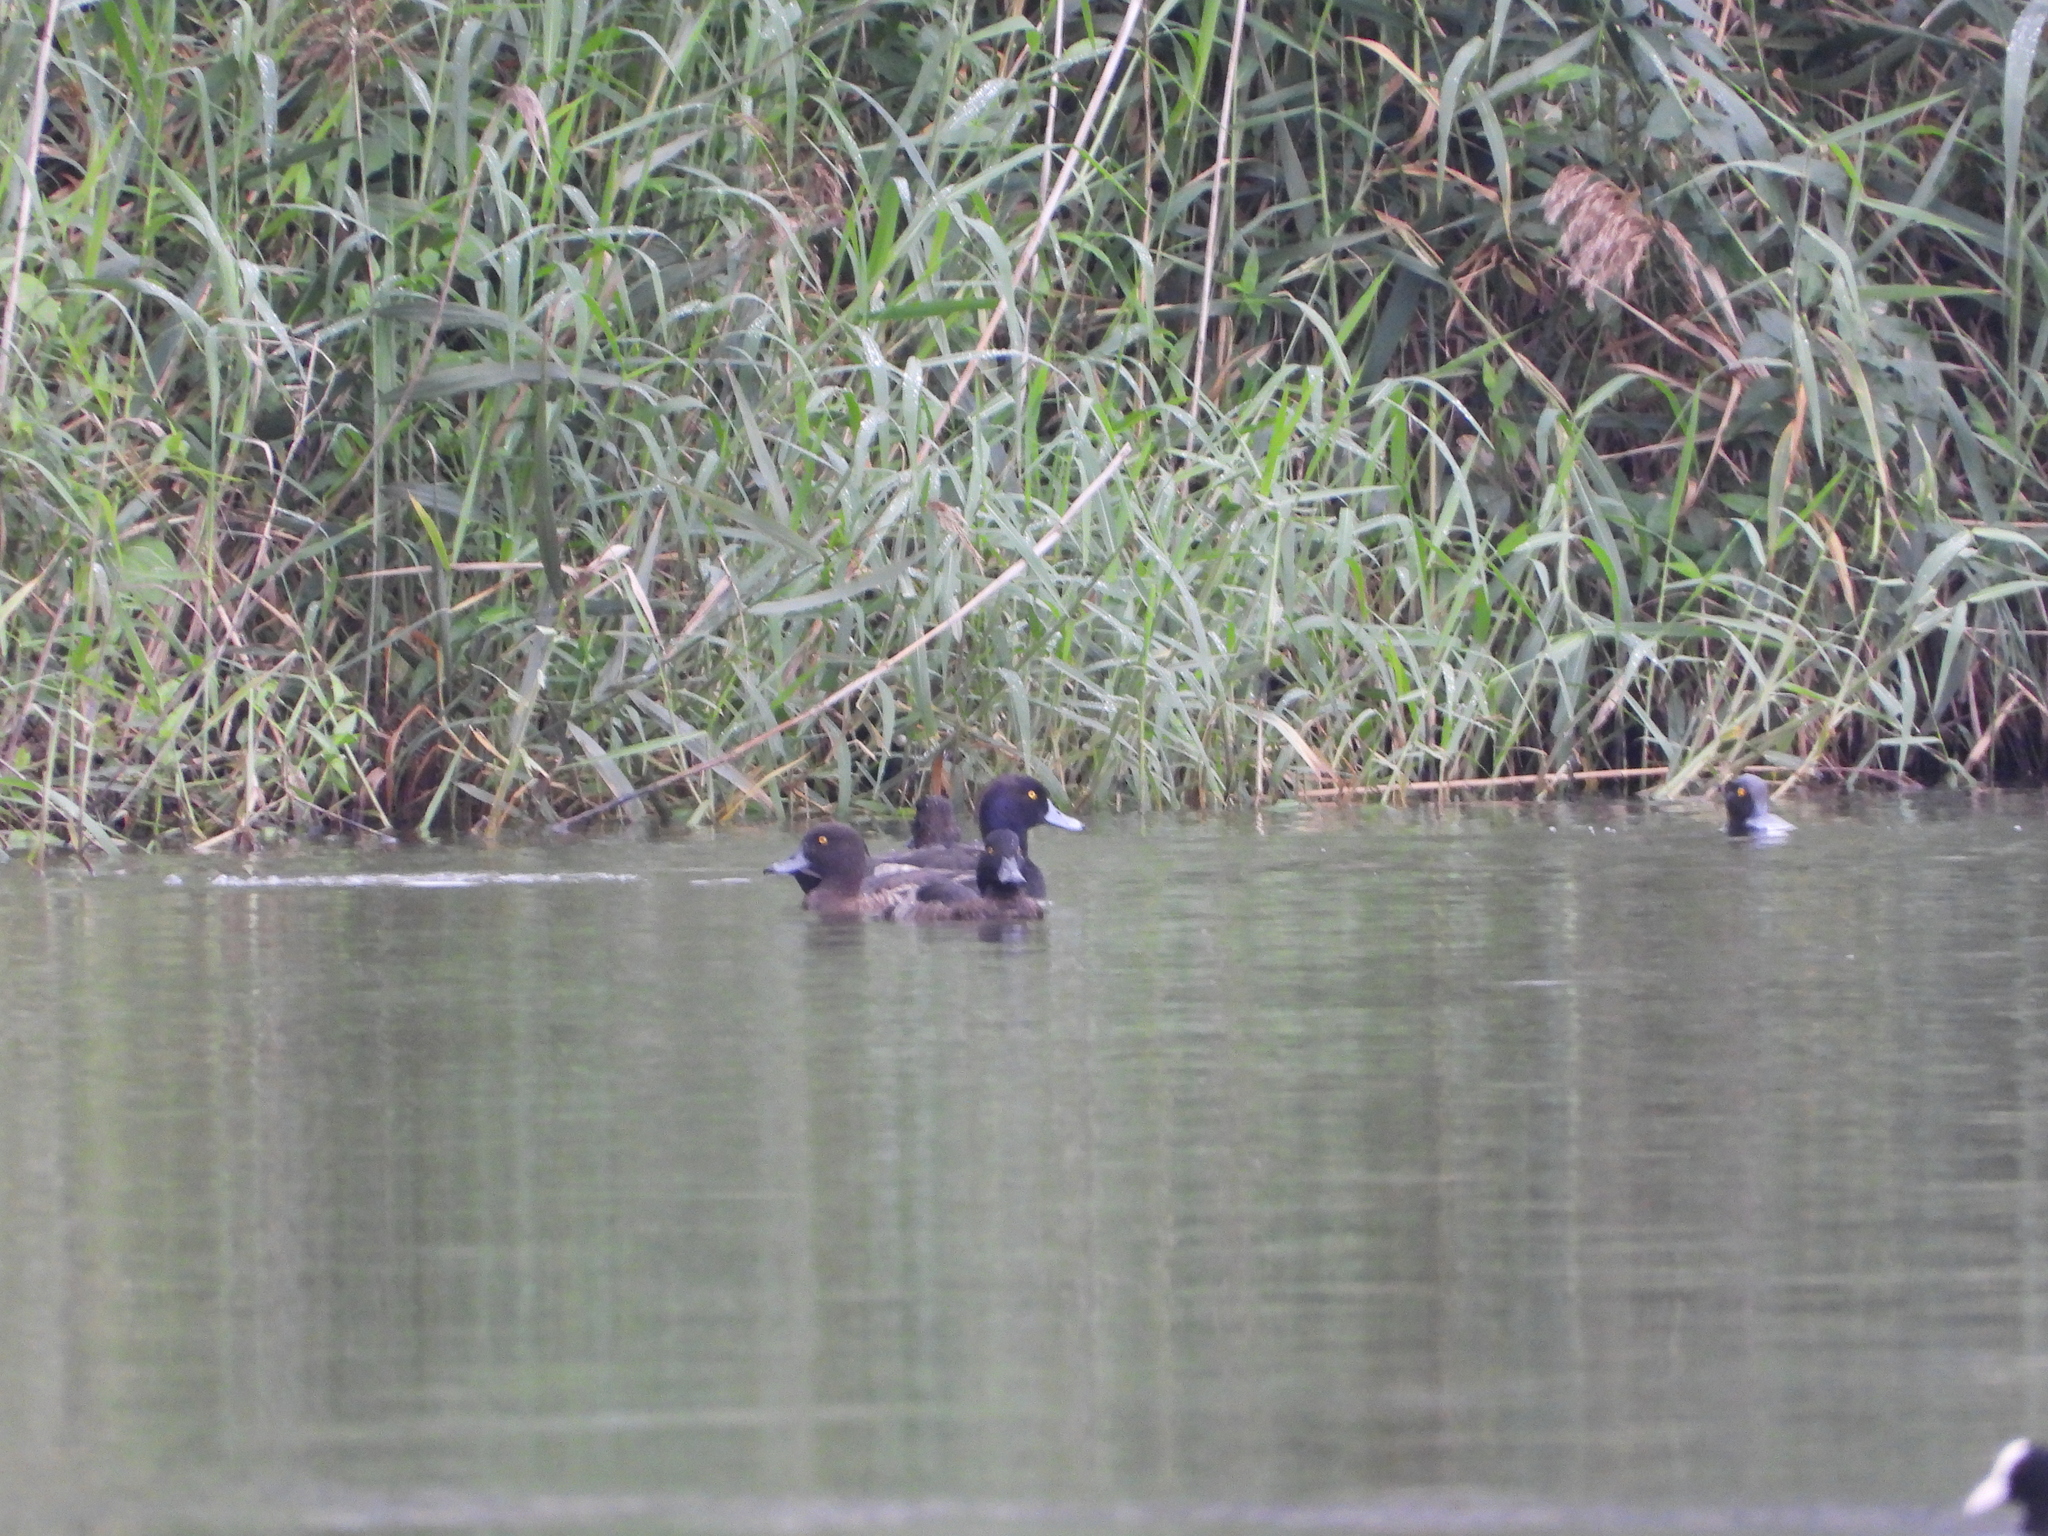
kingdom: Animalia
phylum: Chordata
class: Aves
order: Anseriformes
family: Anatidae
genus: Aythya
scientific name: Aythya fuligula
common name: Tufted duck
